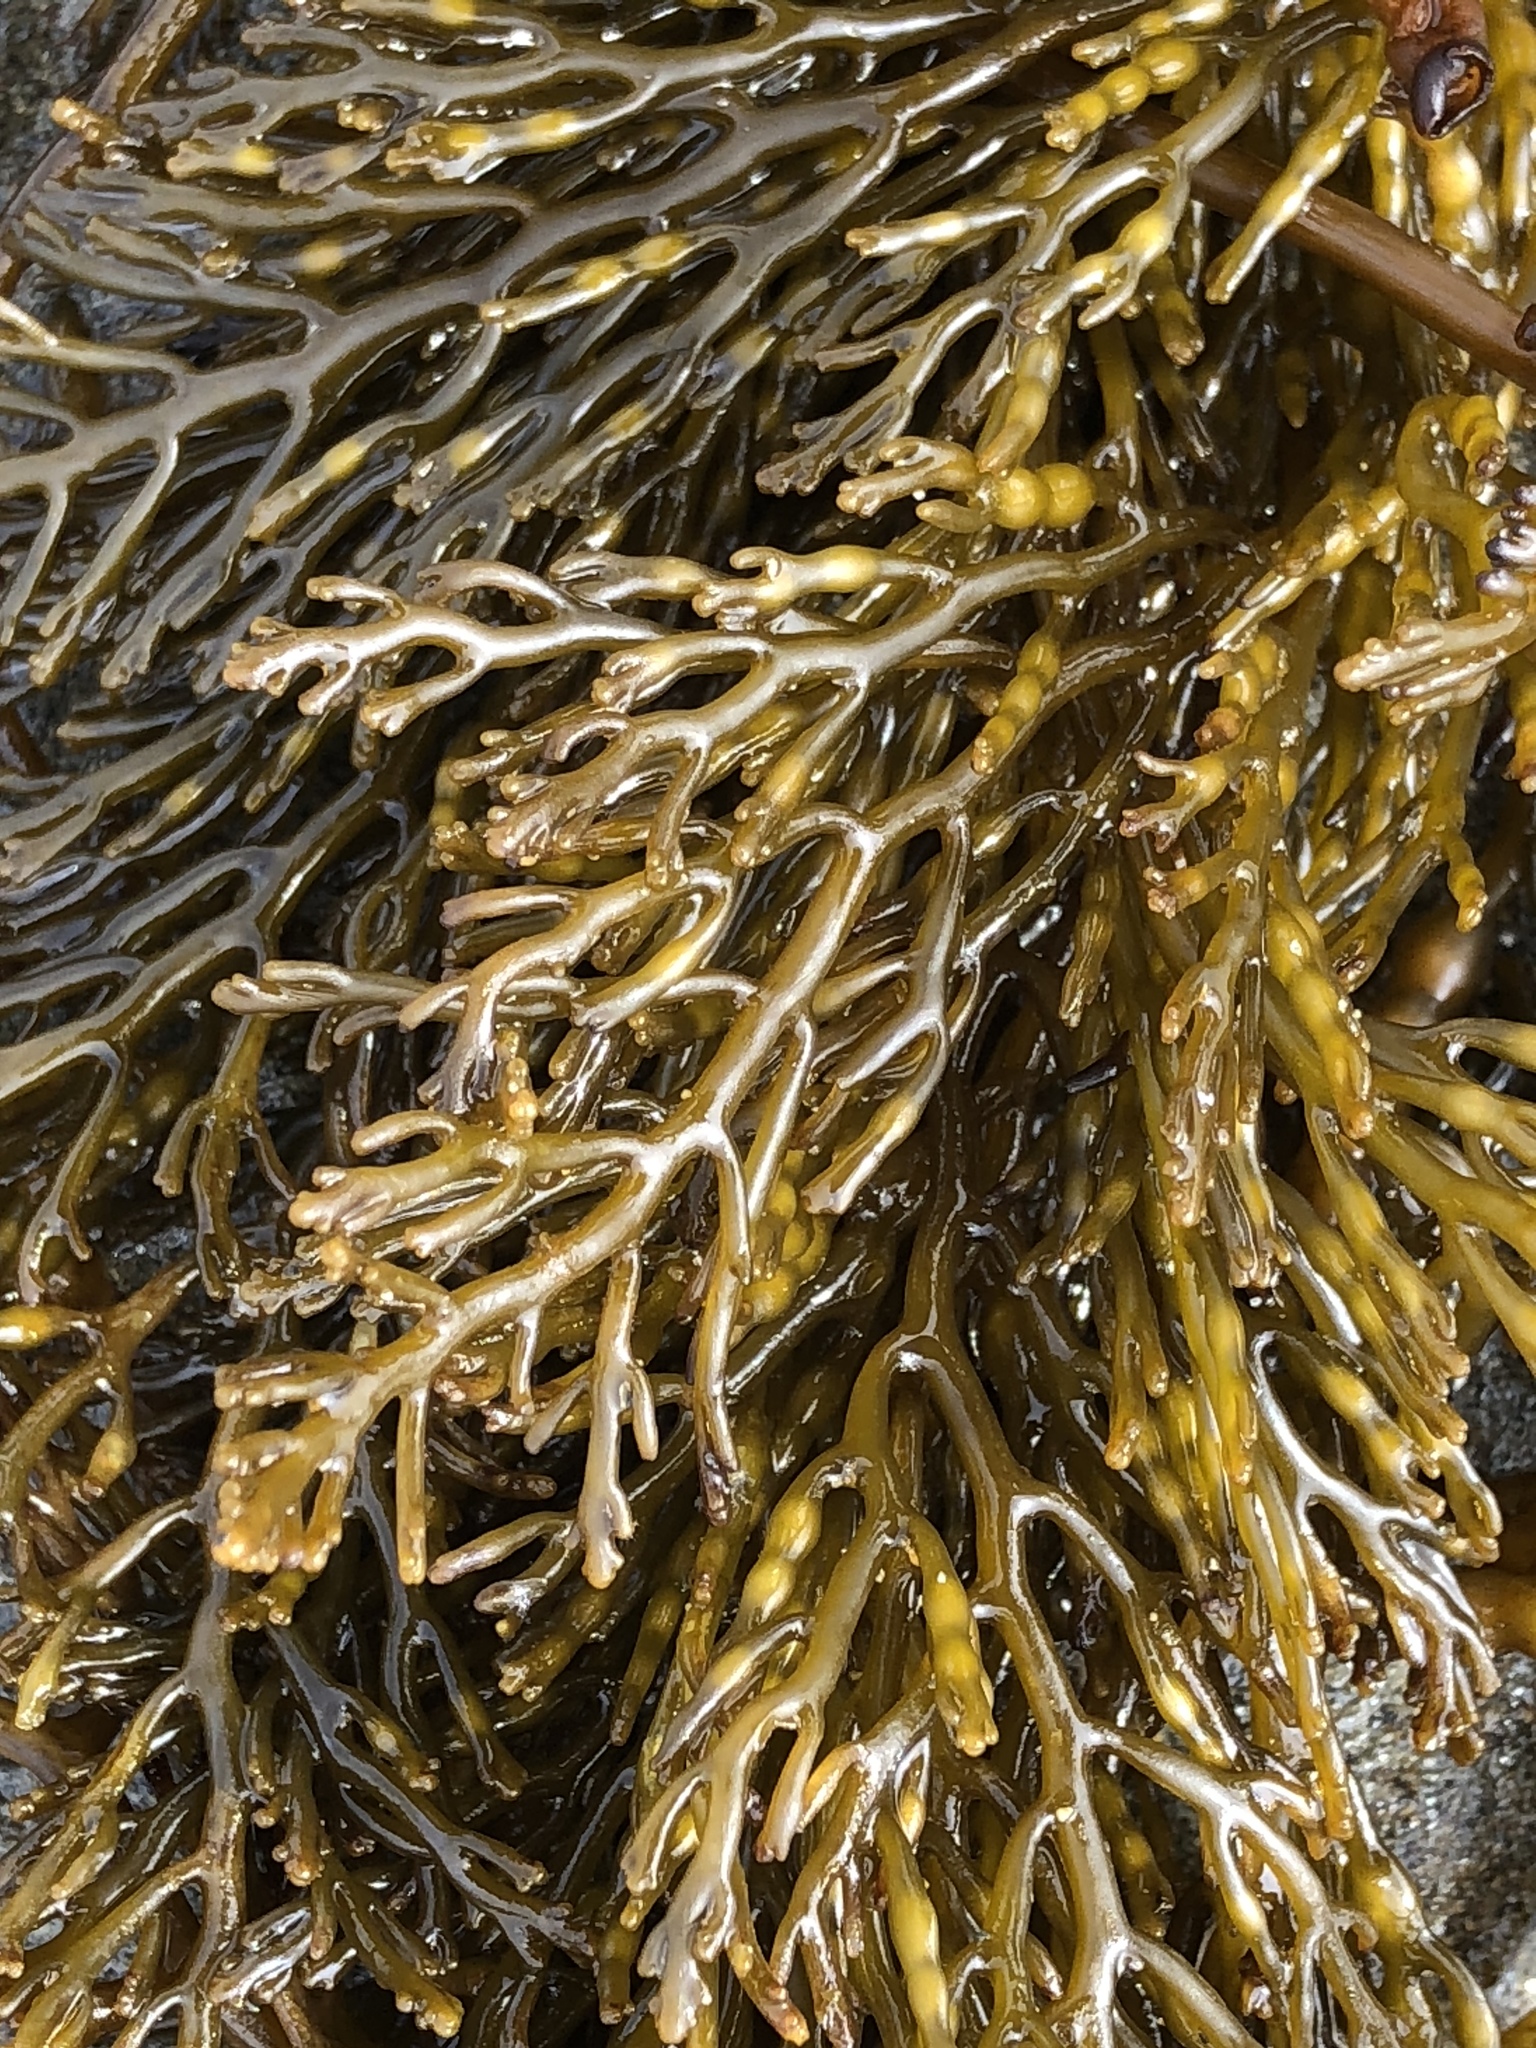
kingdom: Chromista
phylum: Ochrophyta
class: Phaeophyceae
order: Fucales
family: Sargassaceae
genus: Stephanocystis
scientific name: Stephanocystis
